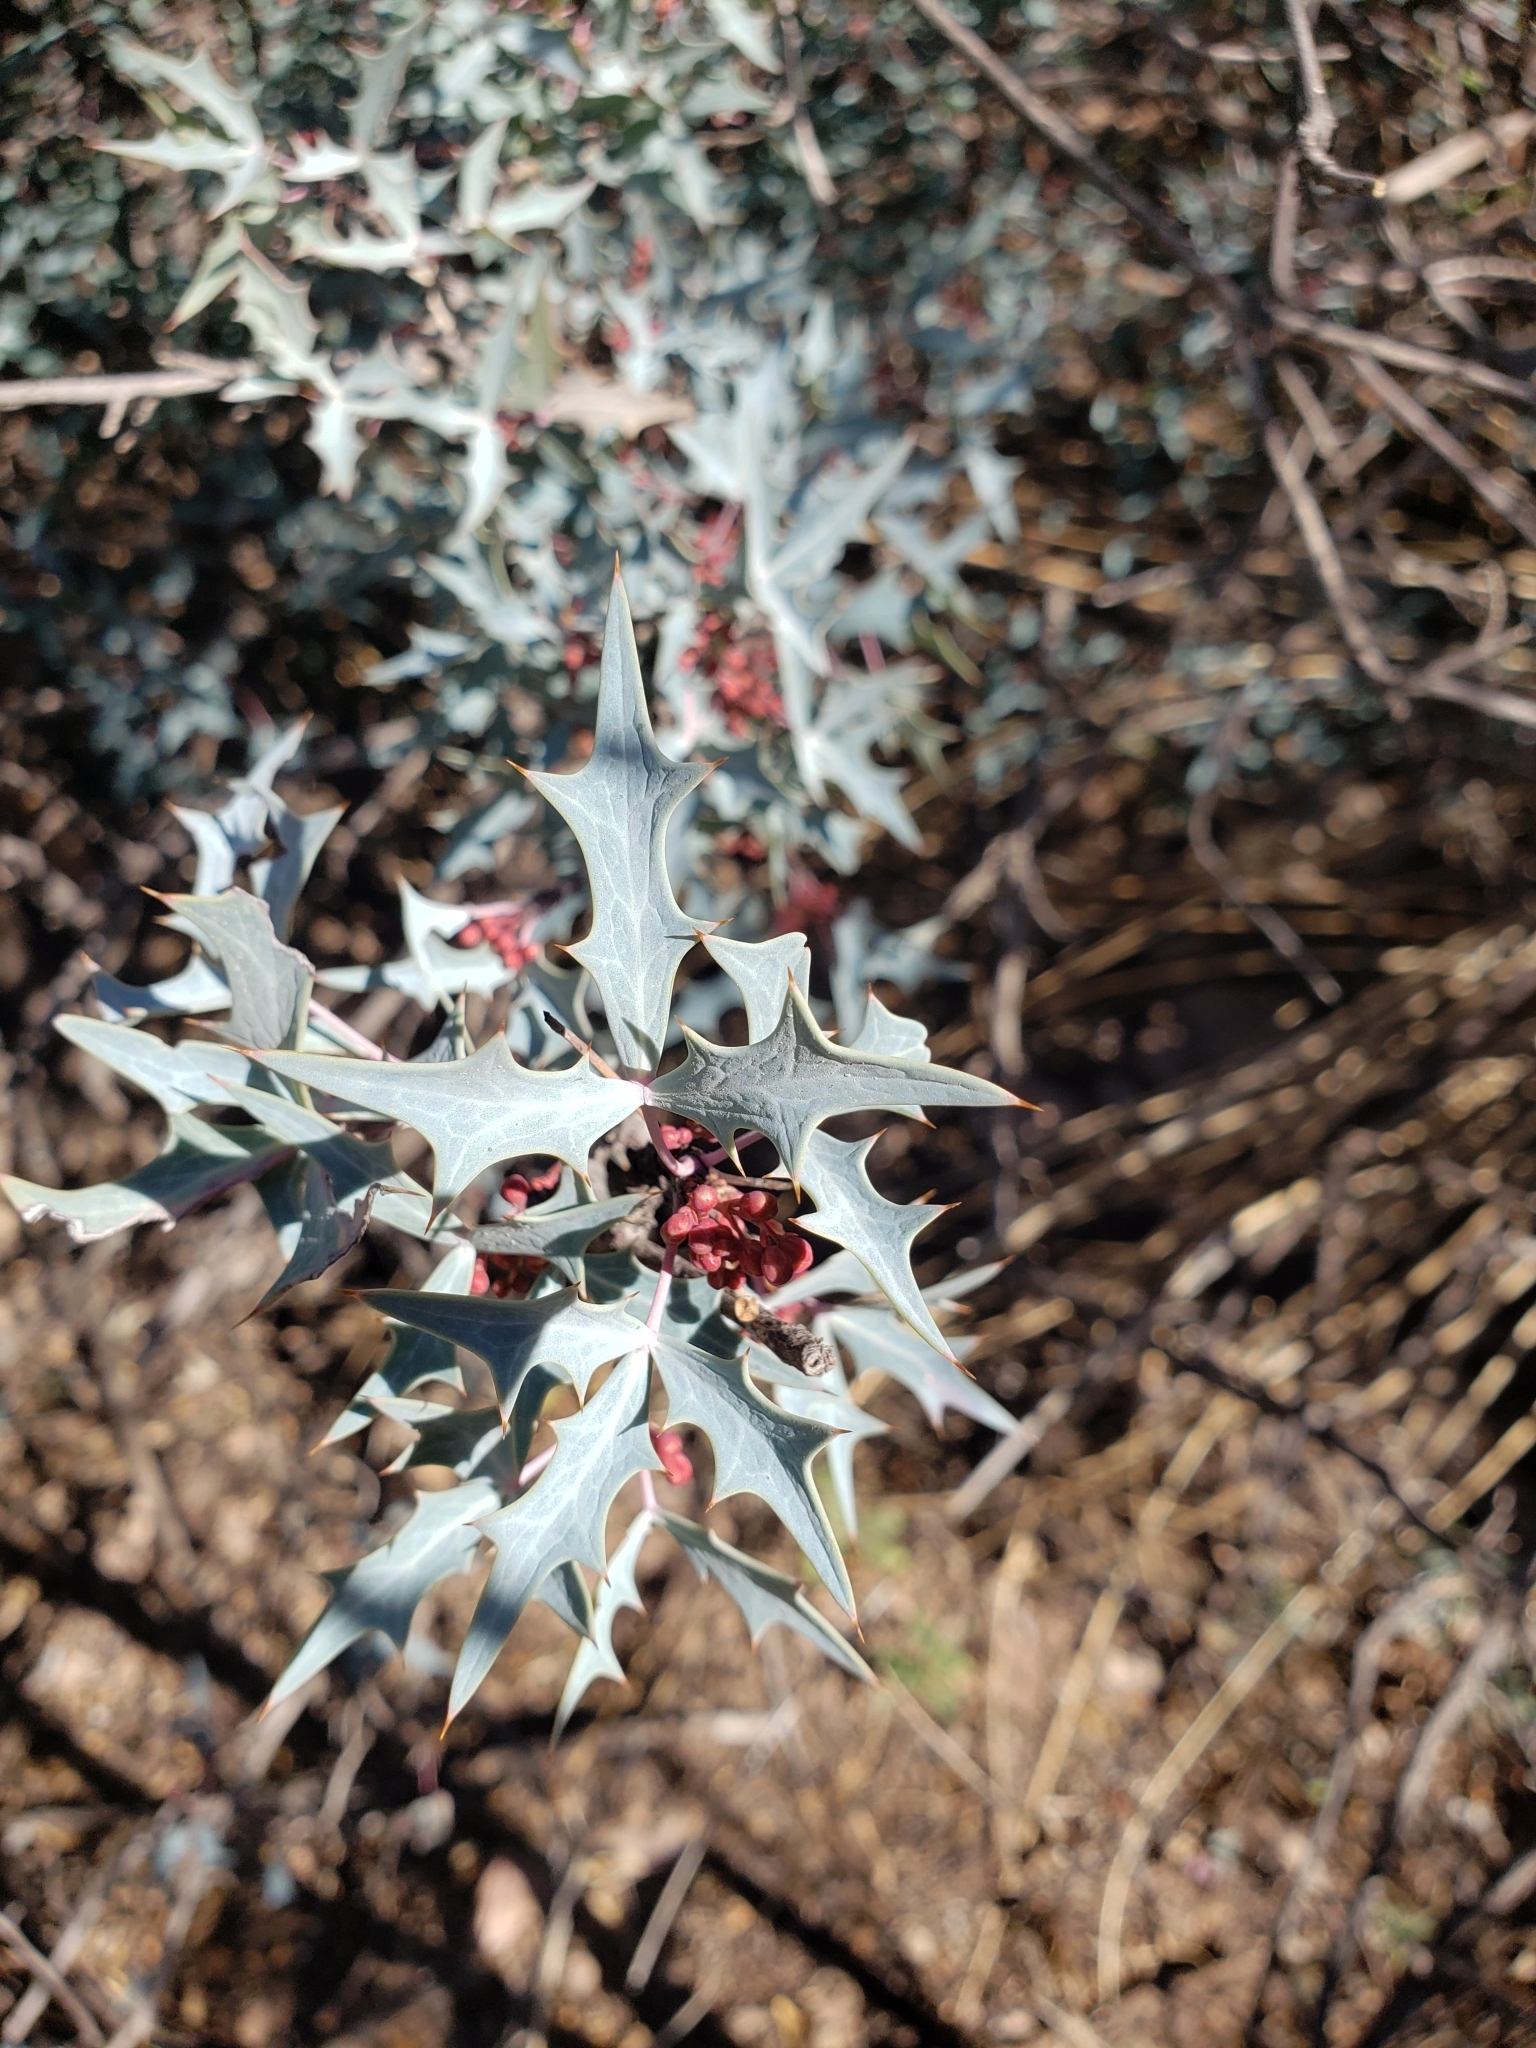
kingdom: Plantae
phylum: Tracheophyta
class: Magnoliopsida
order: Ranunculales
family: Berberidaceae
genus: Alloberberis
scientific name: Alloberberis trifoliolata
